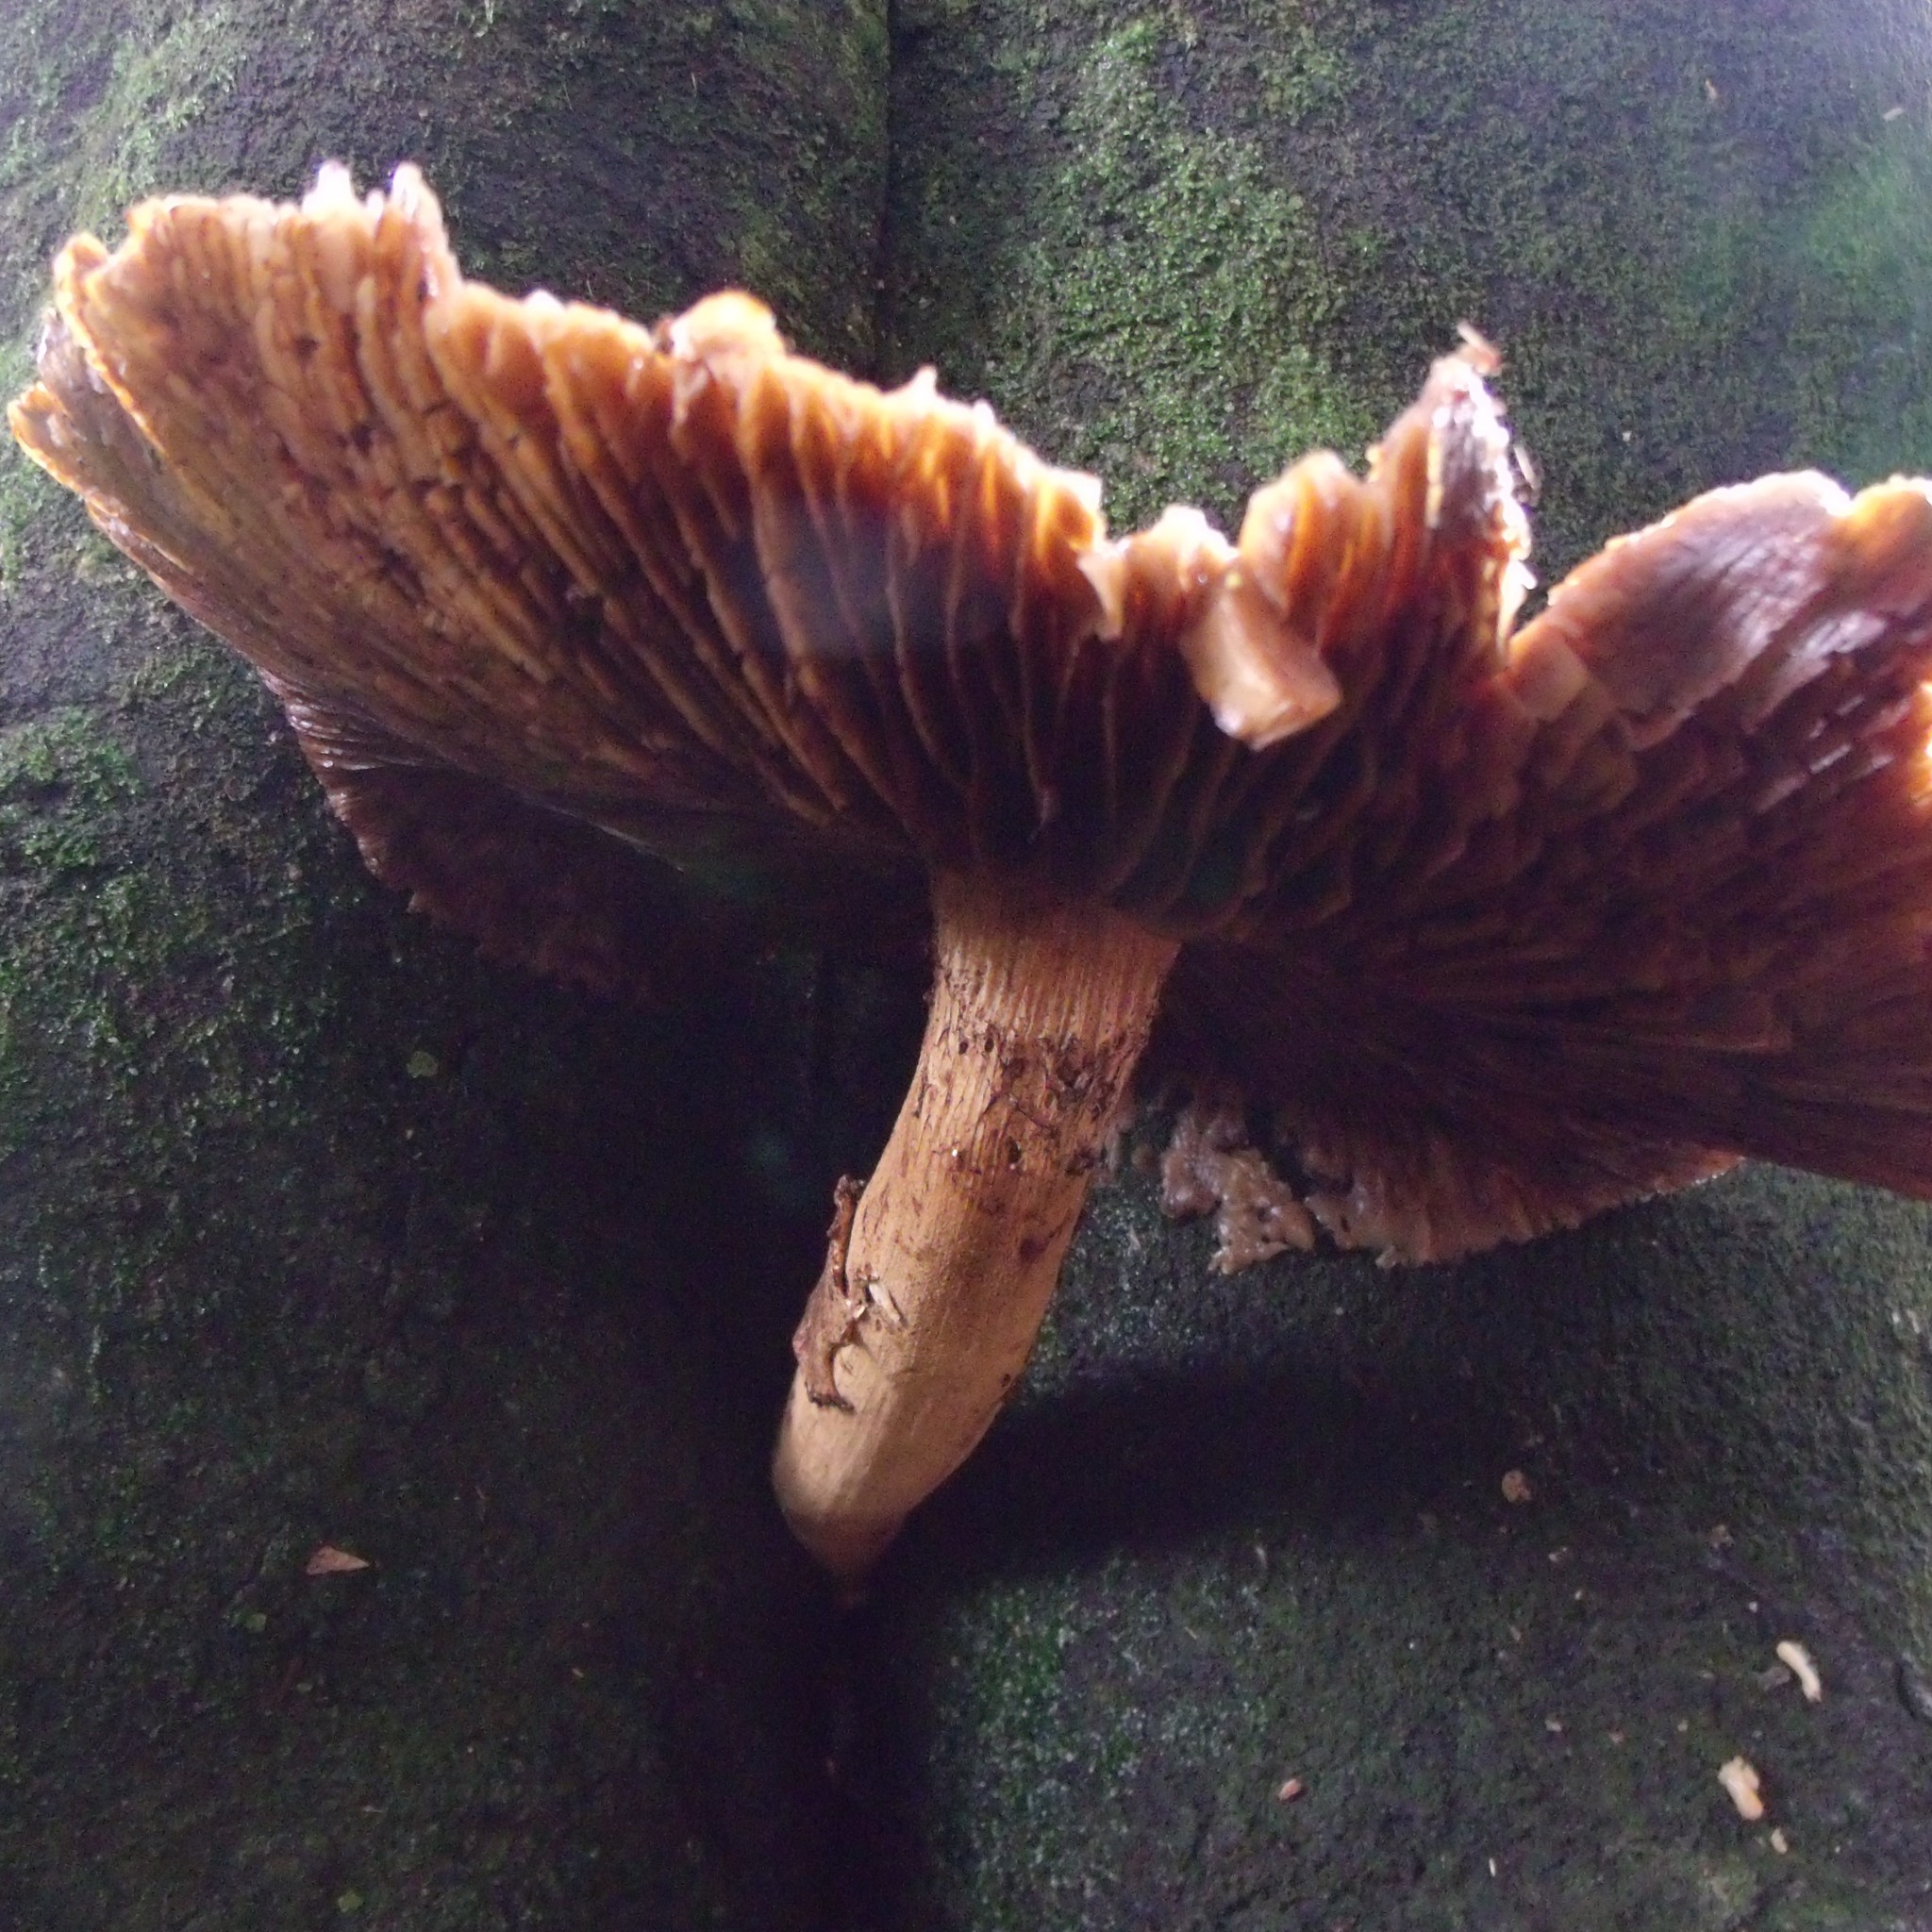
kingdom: Fungi
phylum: Basidiomycota
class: Agaricomycetes
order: Agaricales
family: Tubariaceae
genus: Cyclocybe
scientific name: Cyclocybe parasitica
